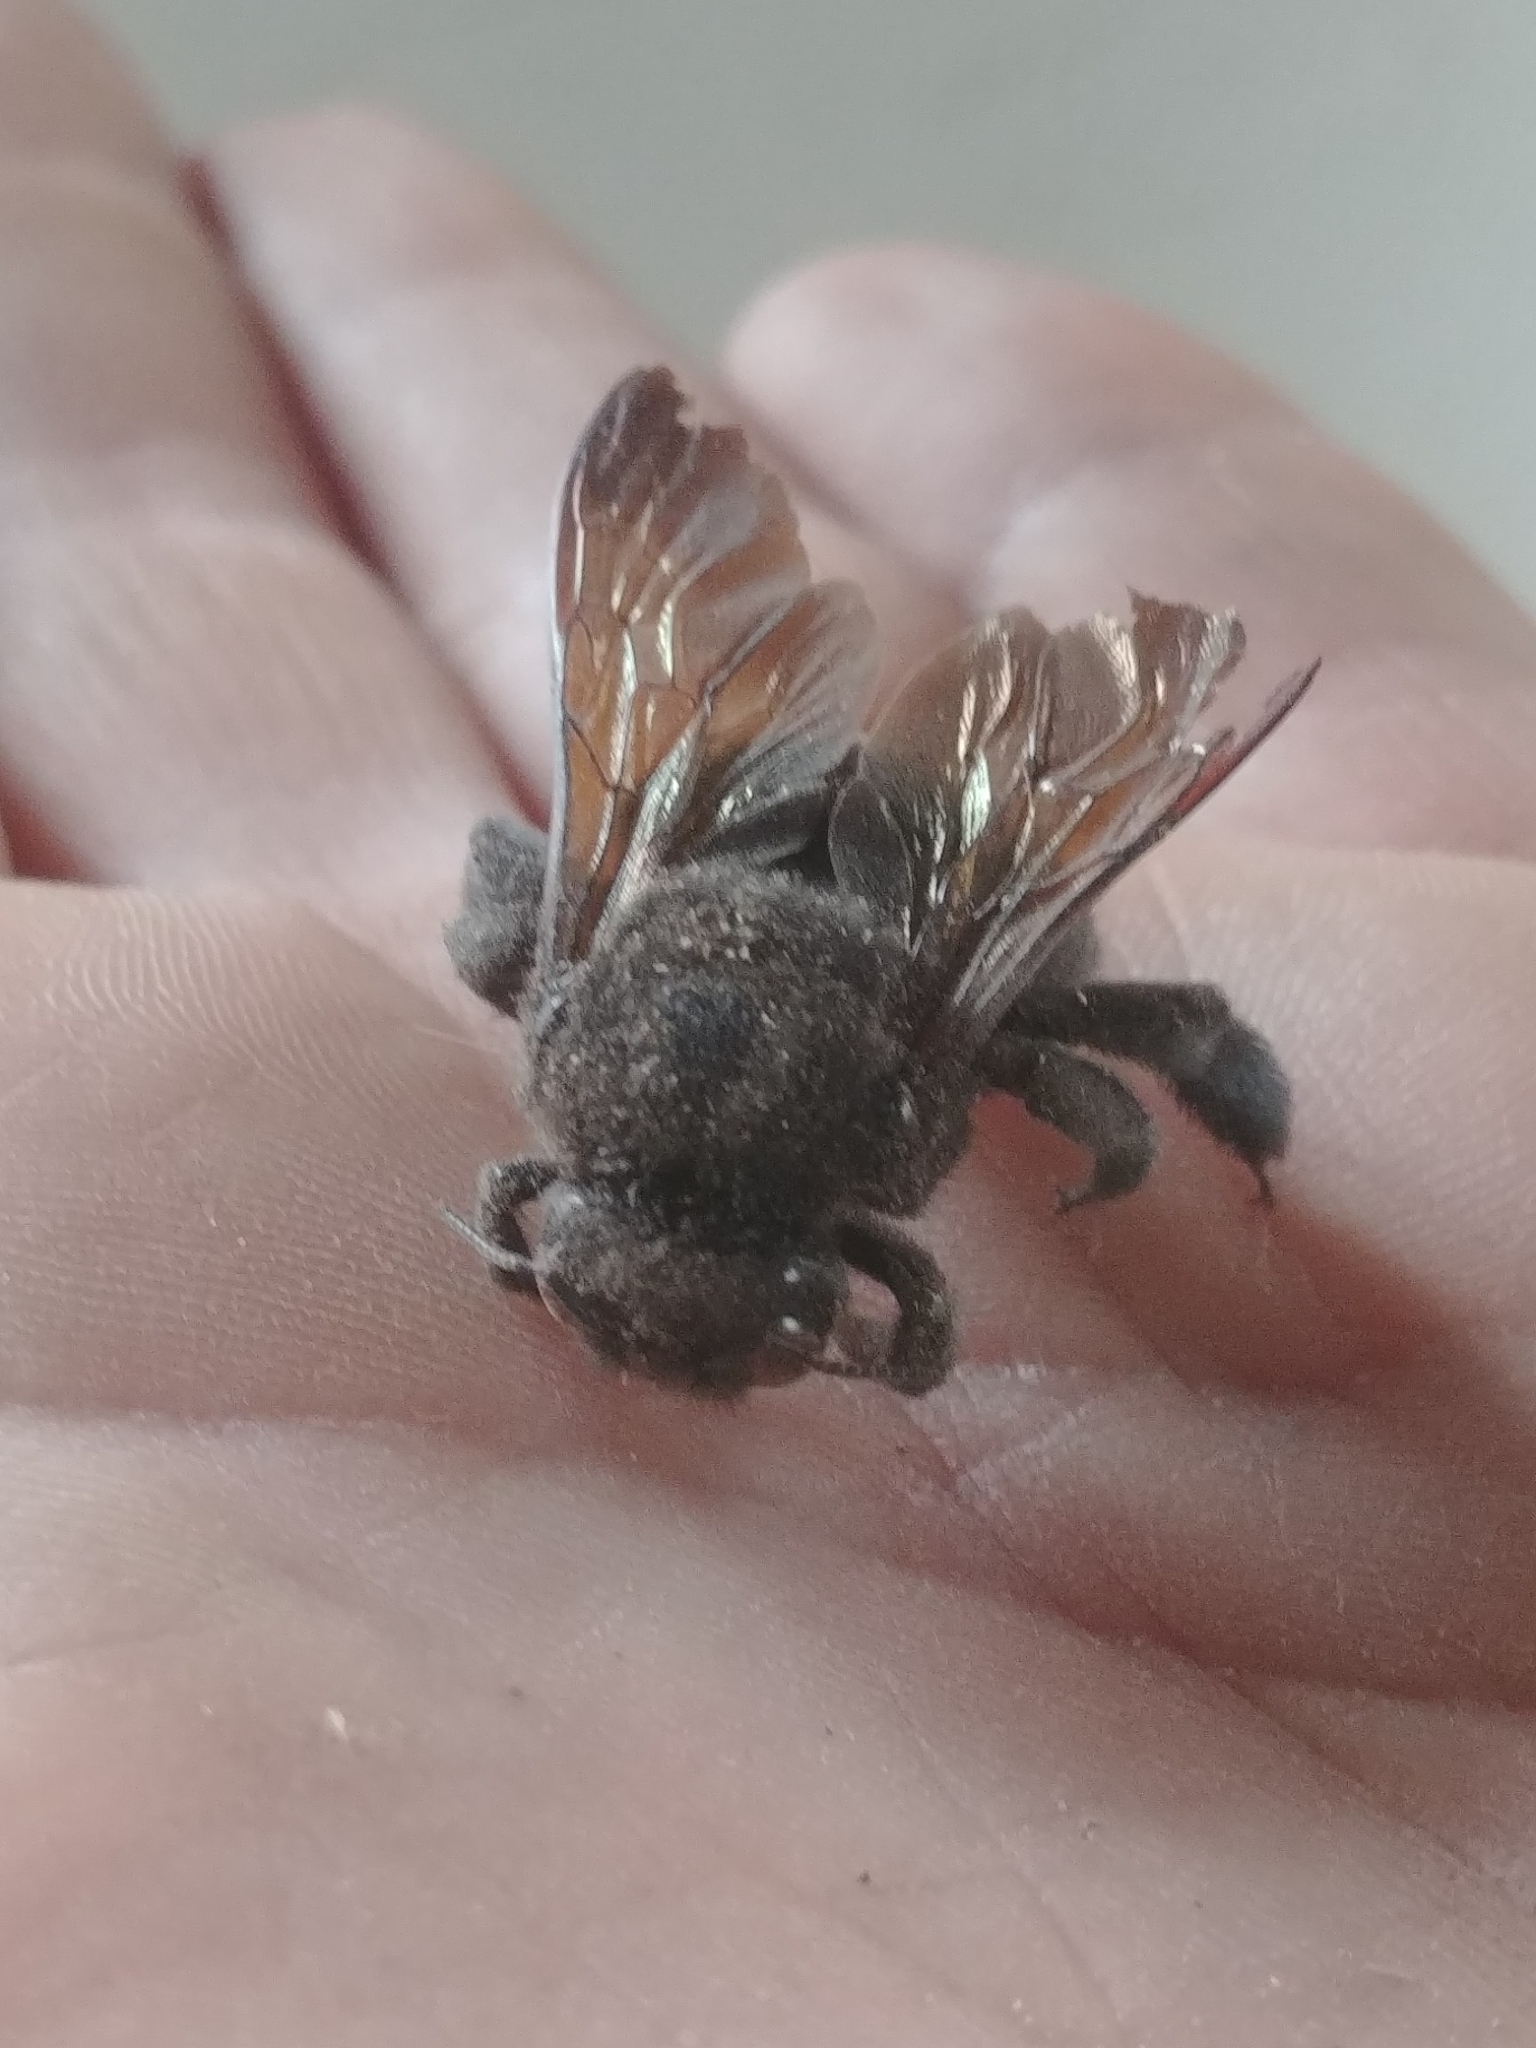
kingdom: Animalia
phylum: Arthropoda
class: Insecta
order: Hymenoptera
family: Apidae
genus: Xylocopa
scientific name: Xylocopa sonorina
